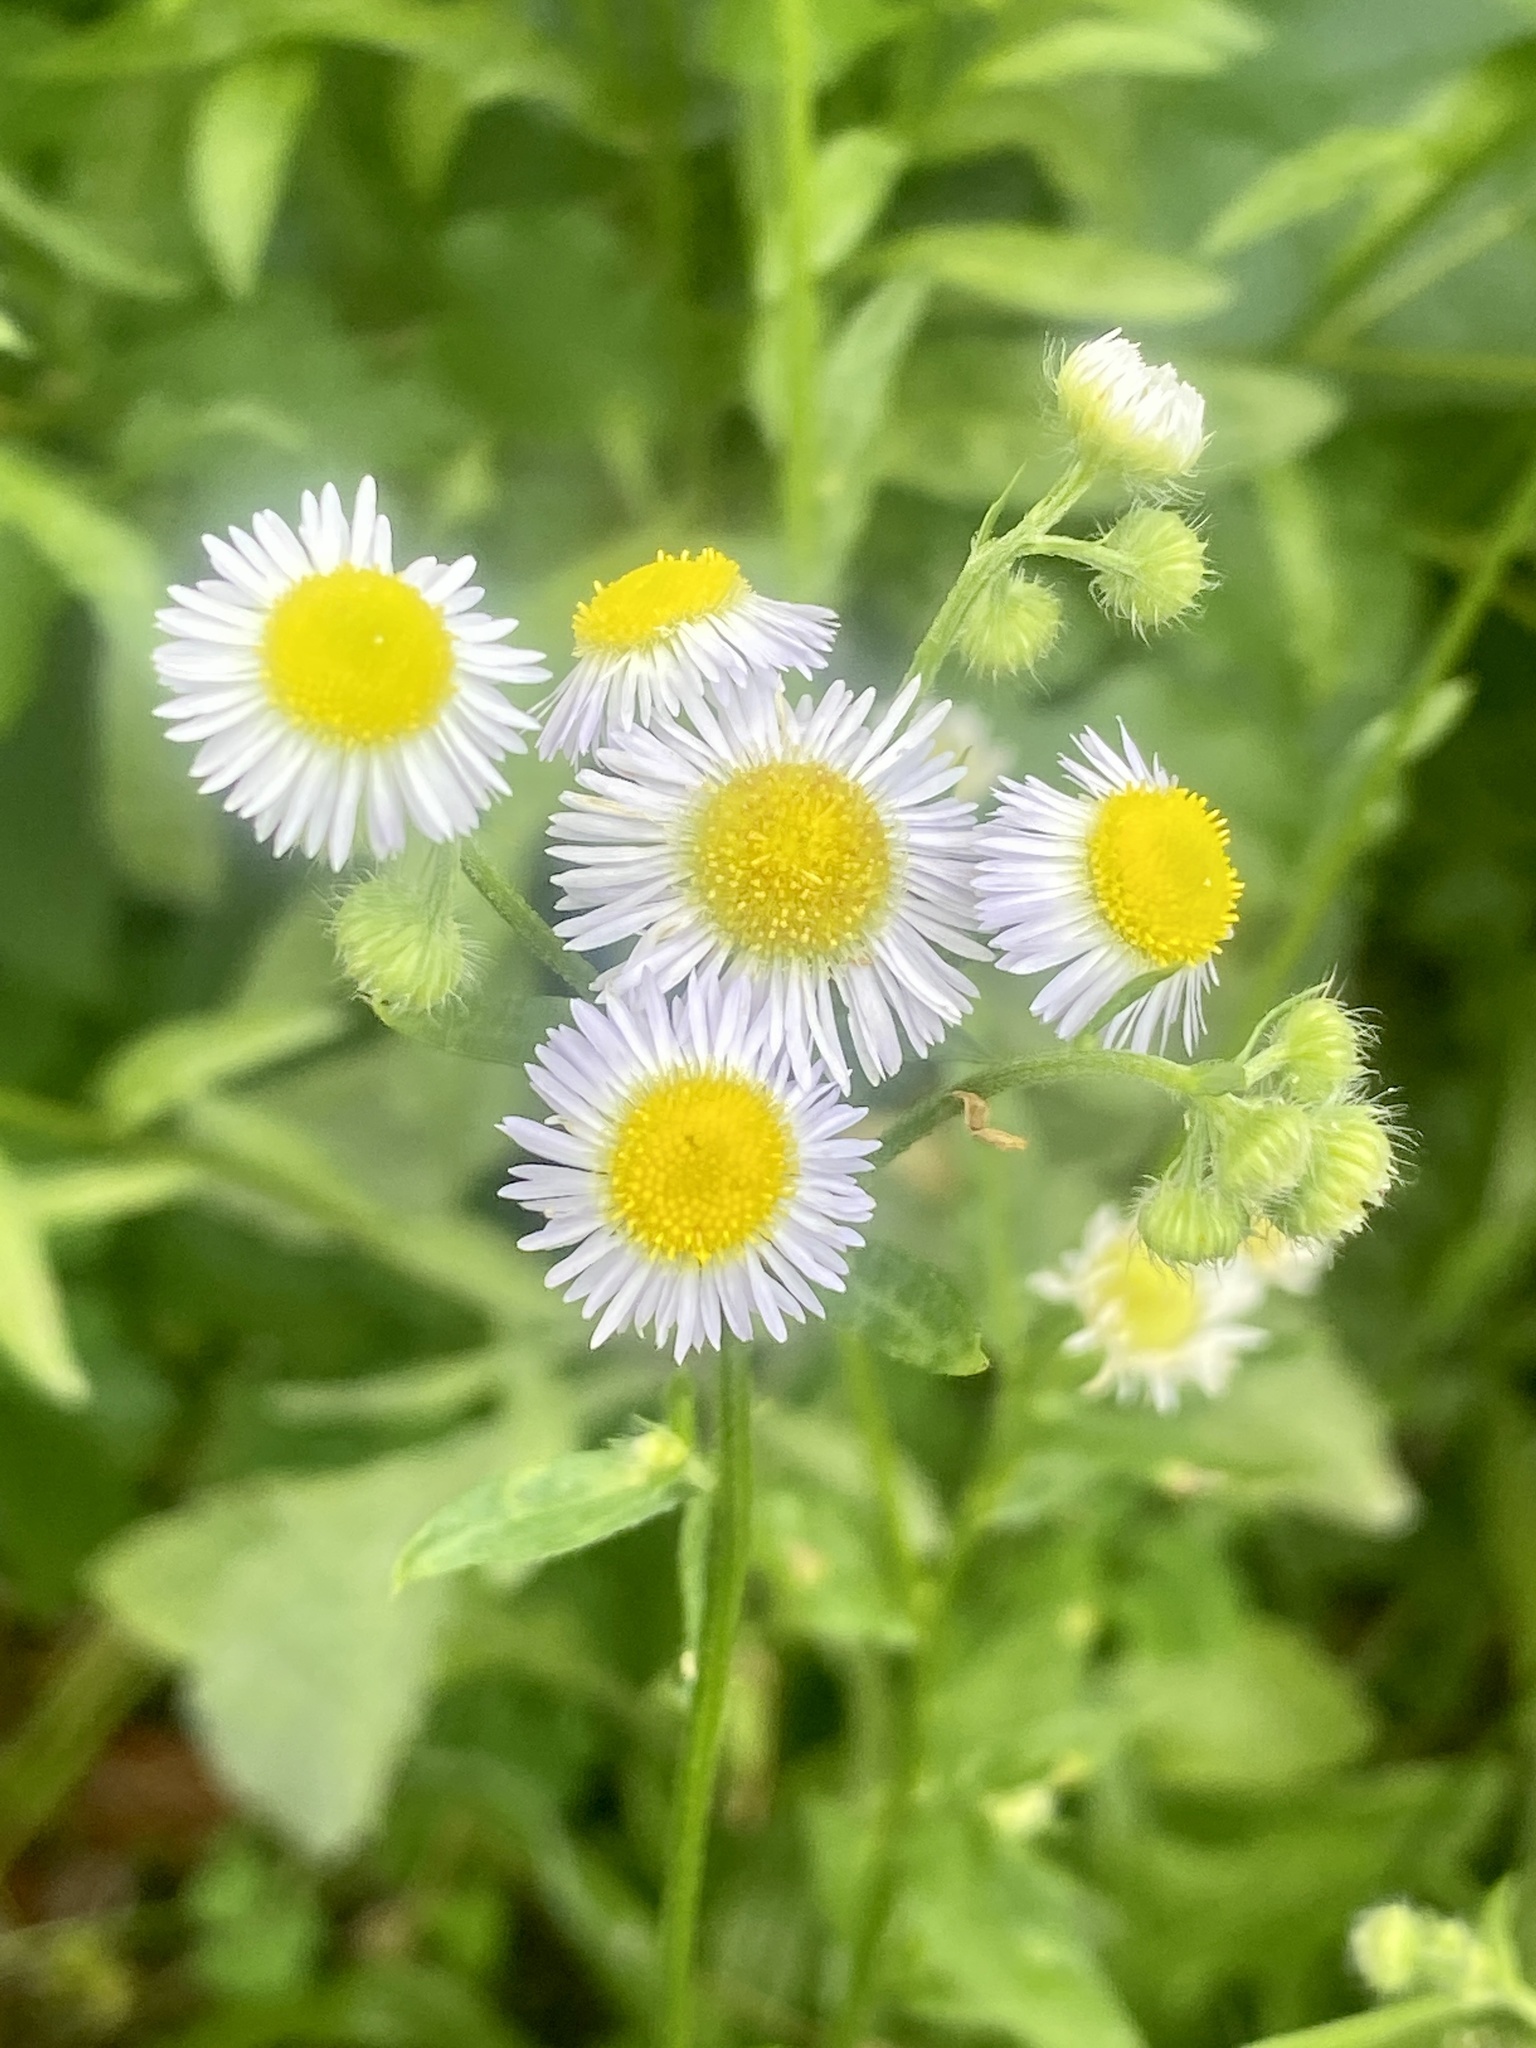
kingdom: Plantae
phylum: Tracheophyta
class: Magnoliopsida
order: Asterales
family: Asteraceae
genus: Erigeron
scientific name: Erigeron annuus
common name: Tall fleabane
